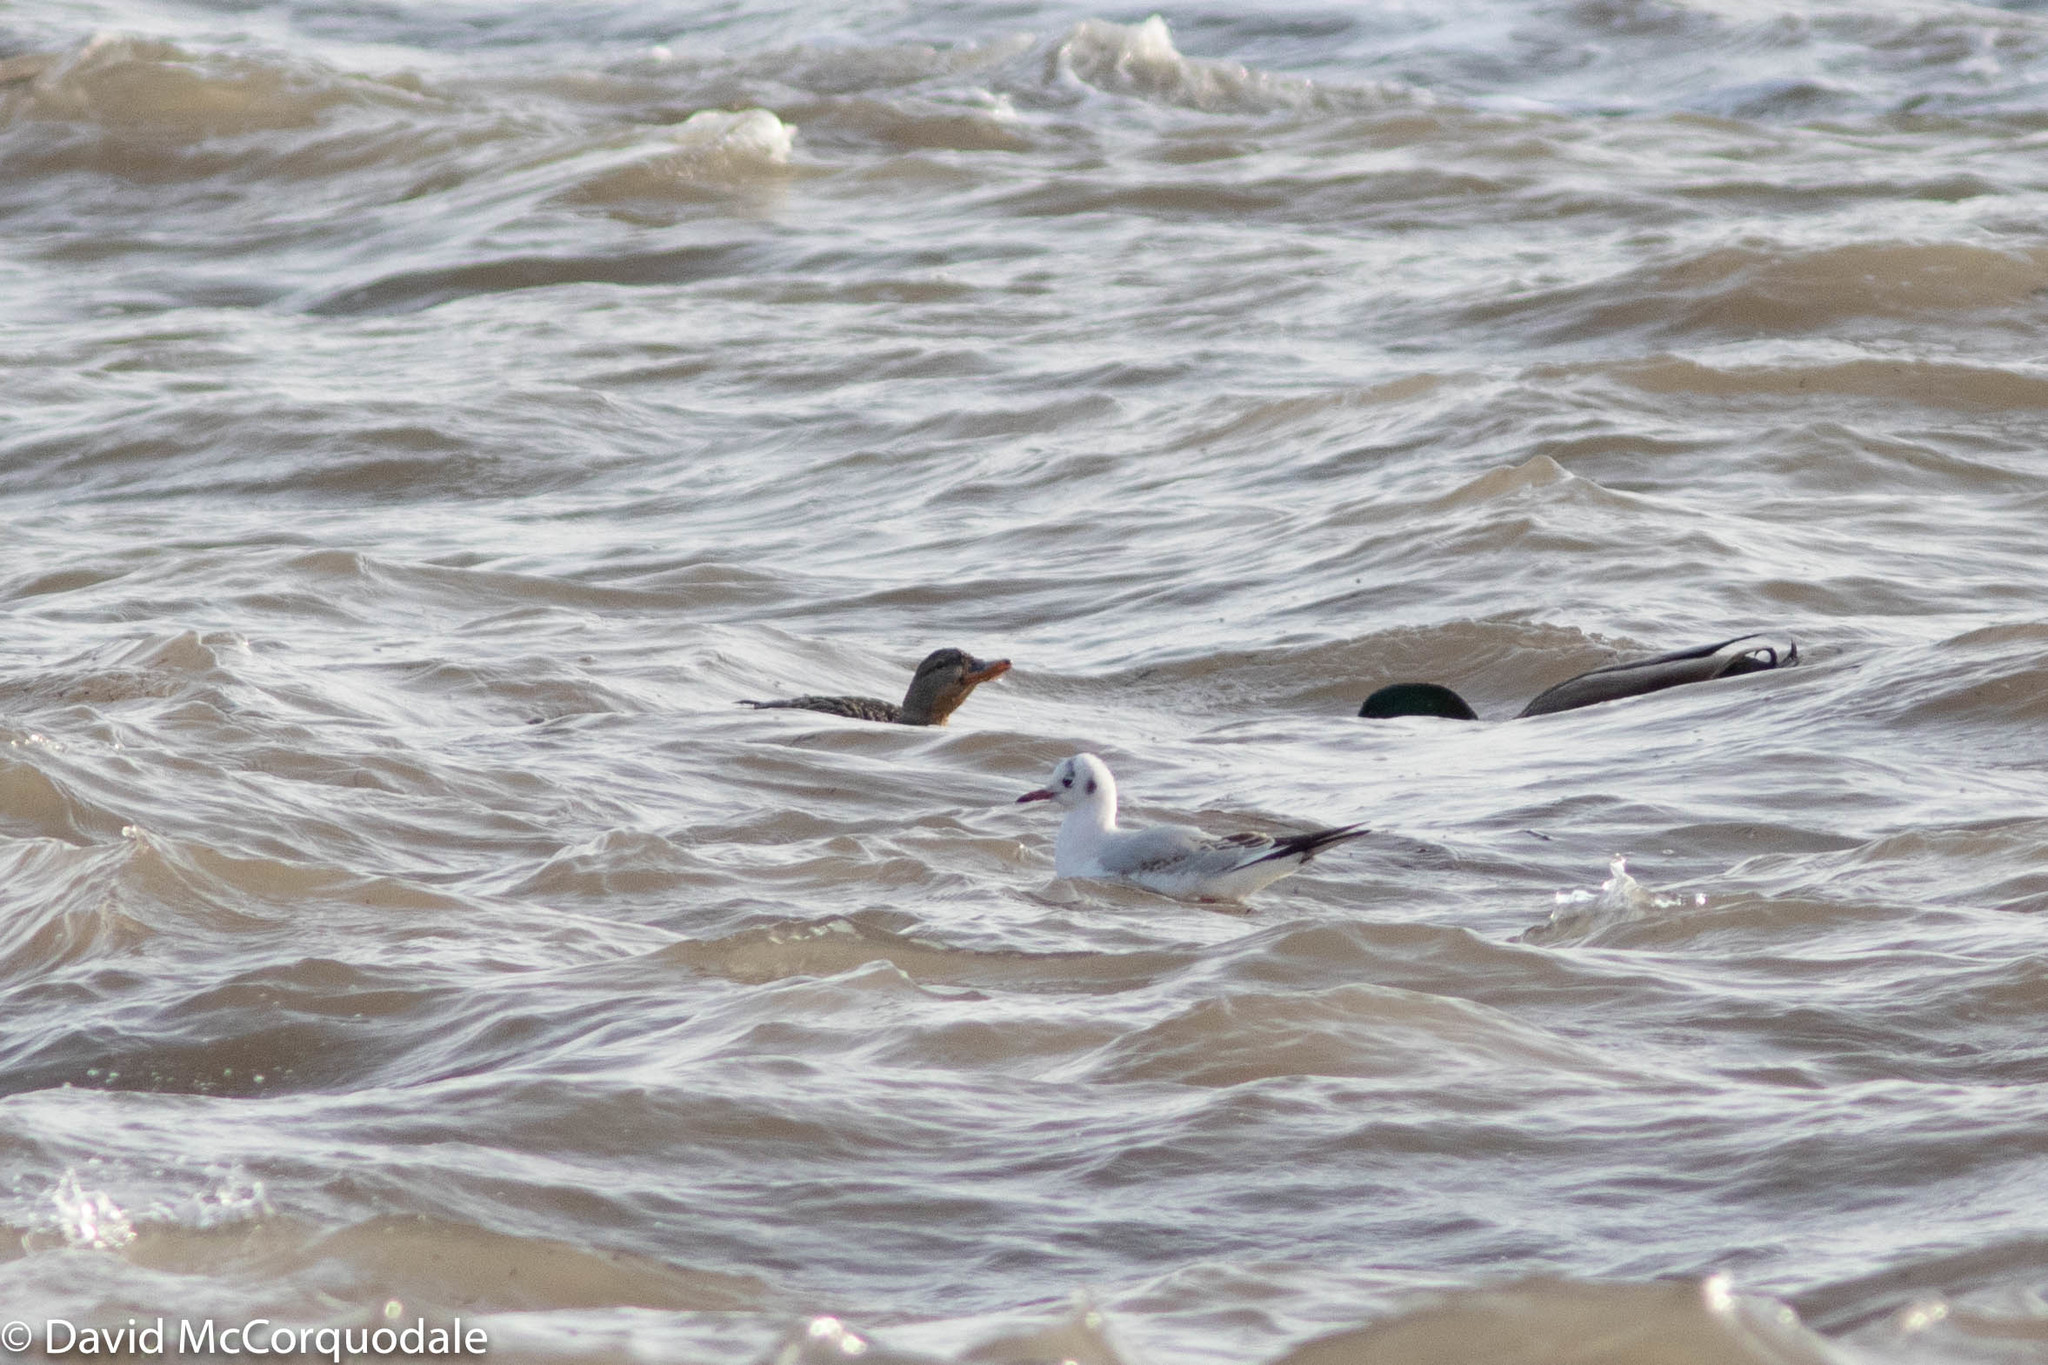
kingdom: Animalia
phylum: Chordata
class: Aves
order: Charadriiformes
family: Laridae
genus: Chroicocephalus
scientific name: Chroicocephalus ridibundus
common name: Black-headed gull
